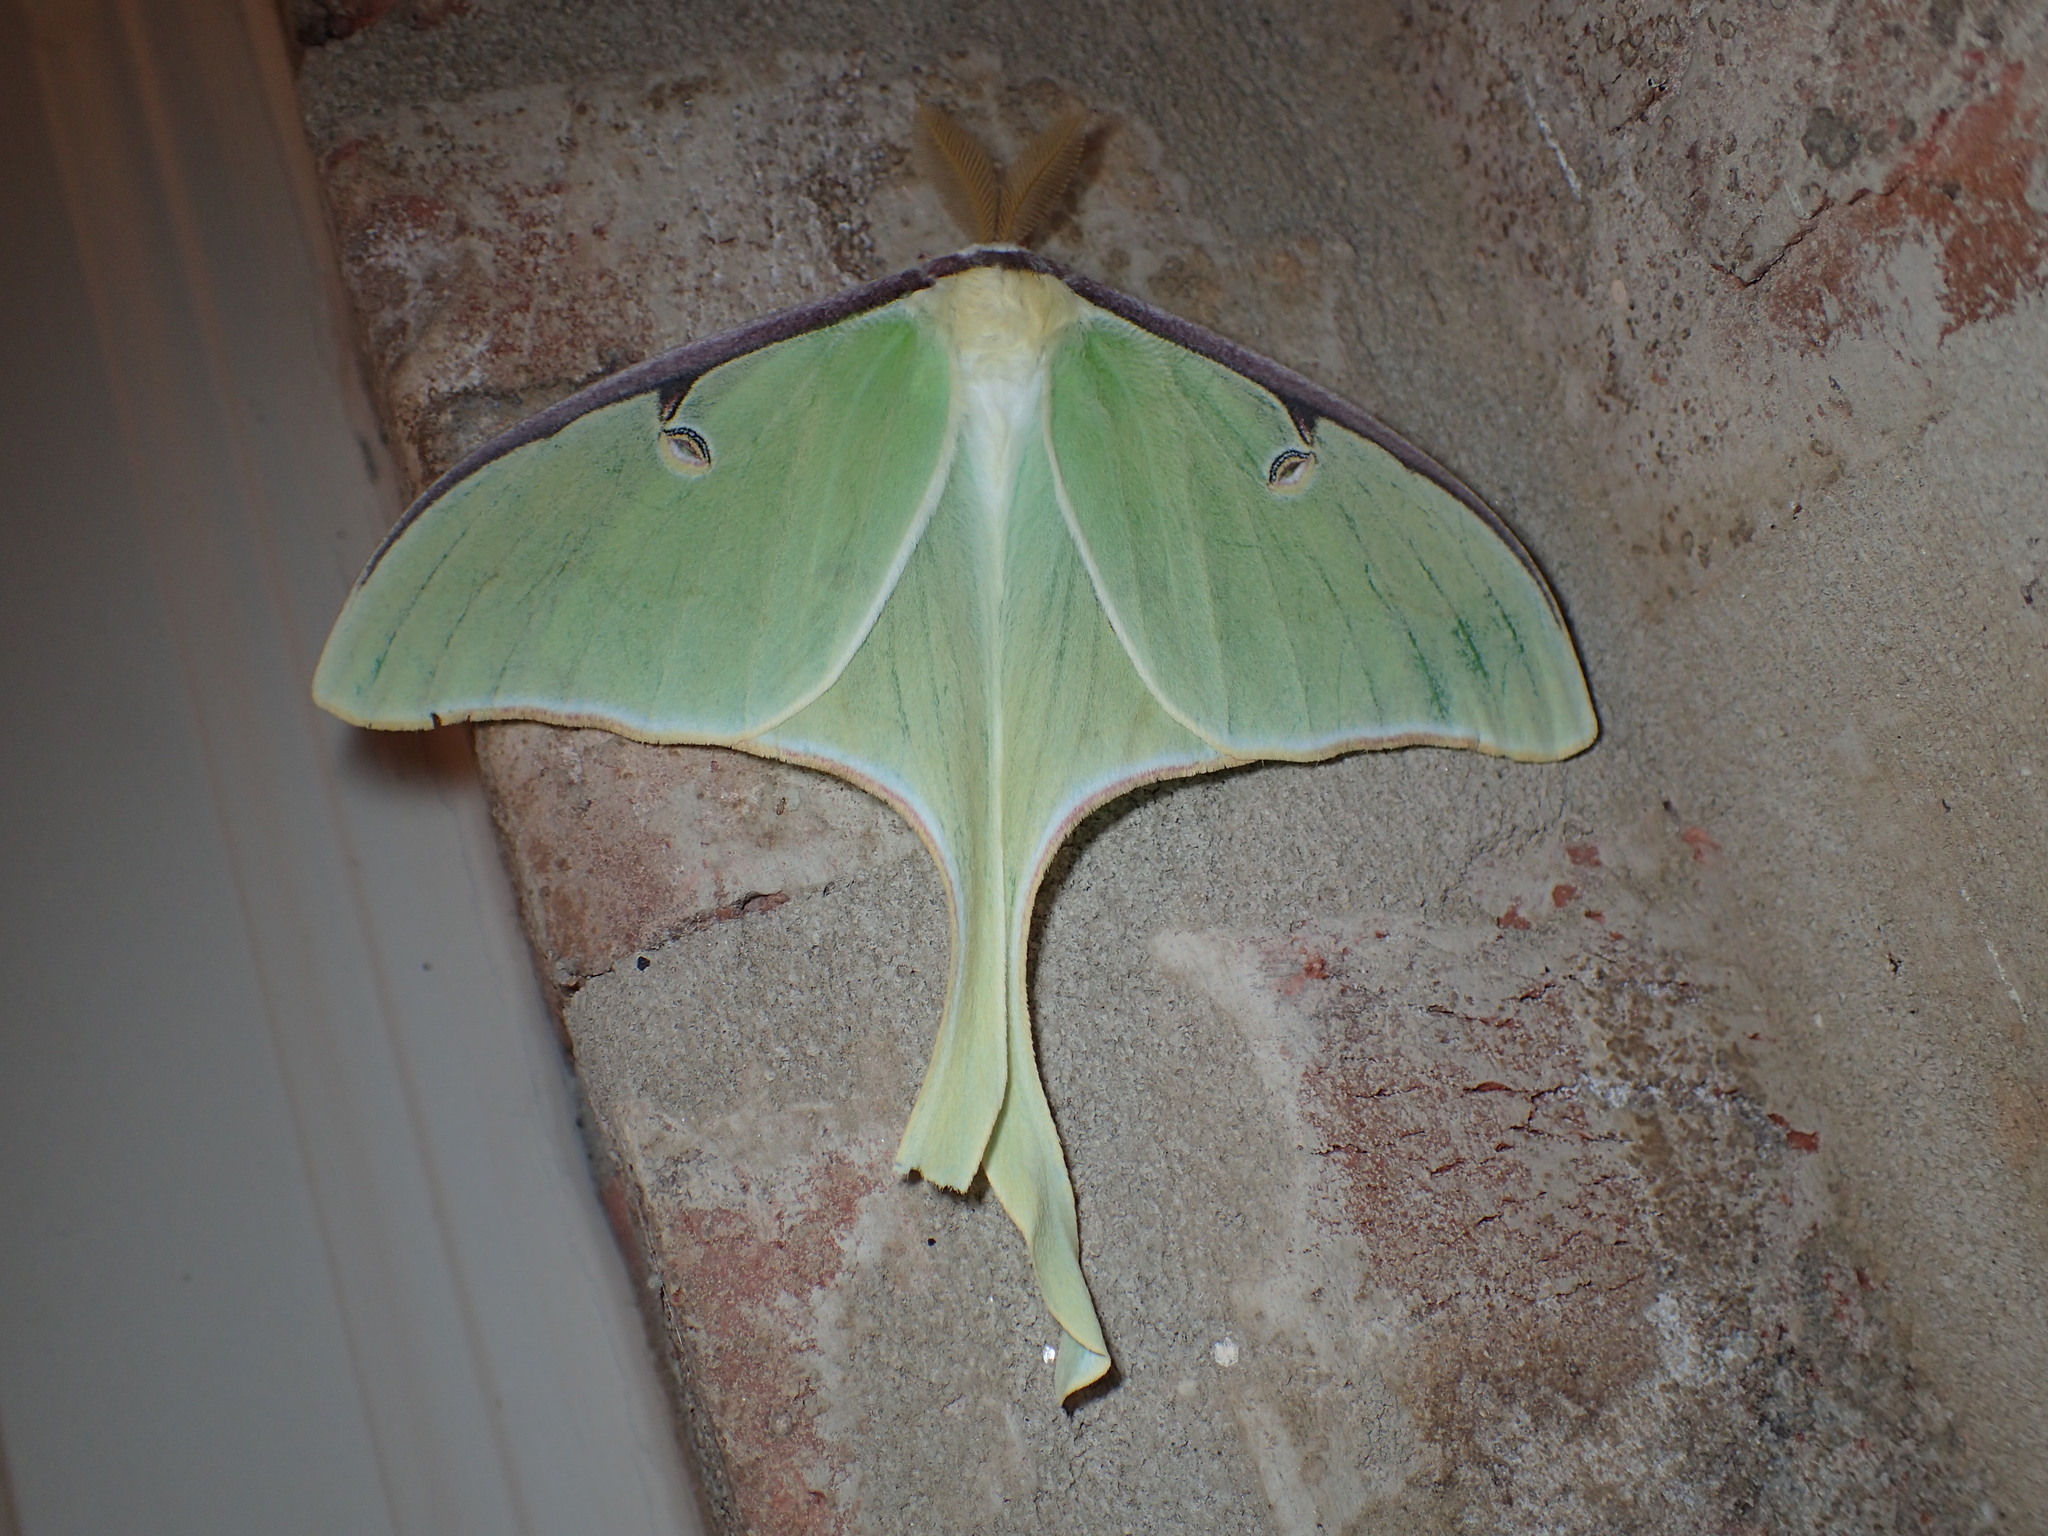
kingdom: Animalia
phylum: Arthropoda
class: Insecta
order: Lepidoptera
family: Saturniidae
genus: Actias
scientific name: Actias luna
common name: Luna moth
